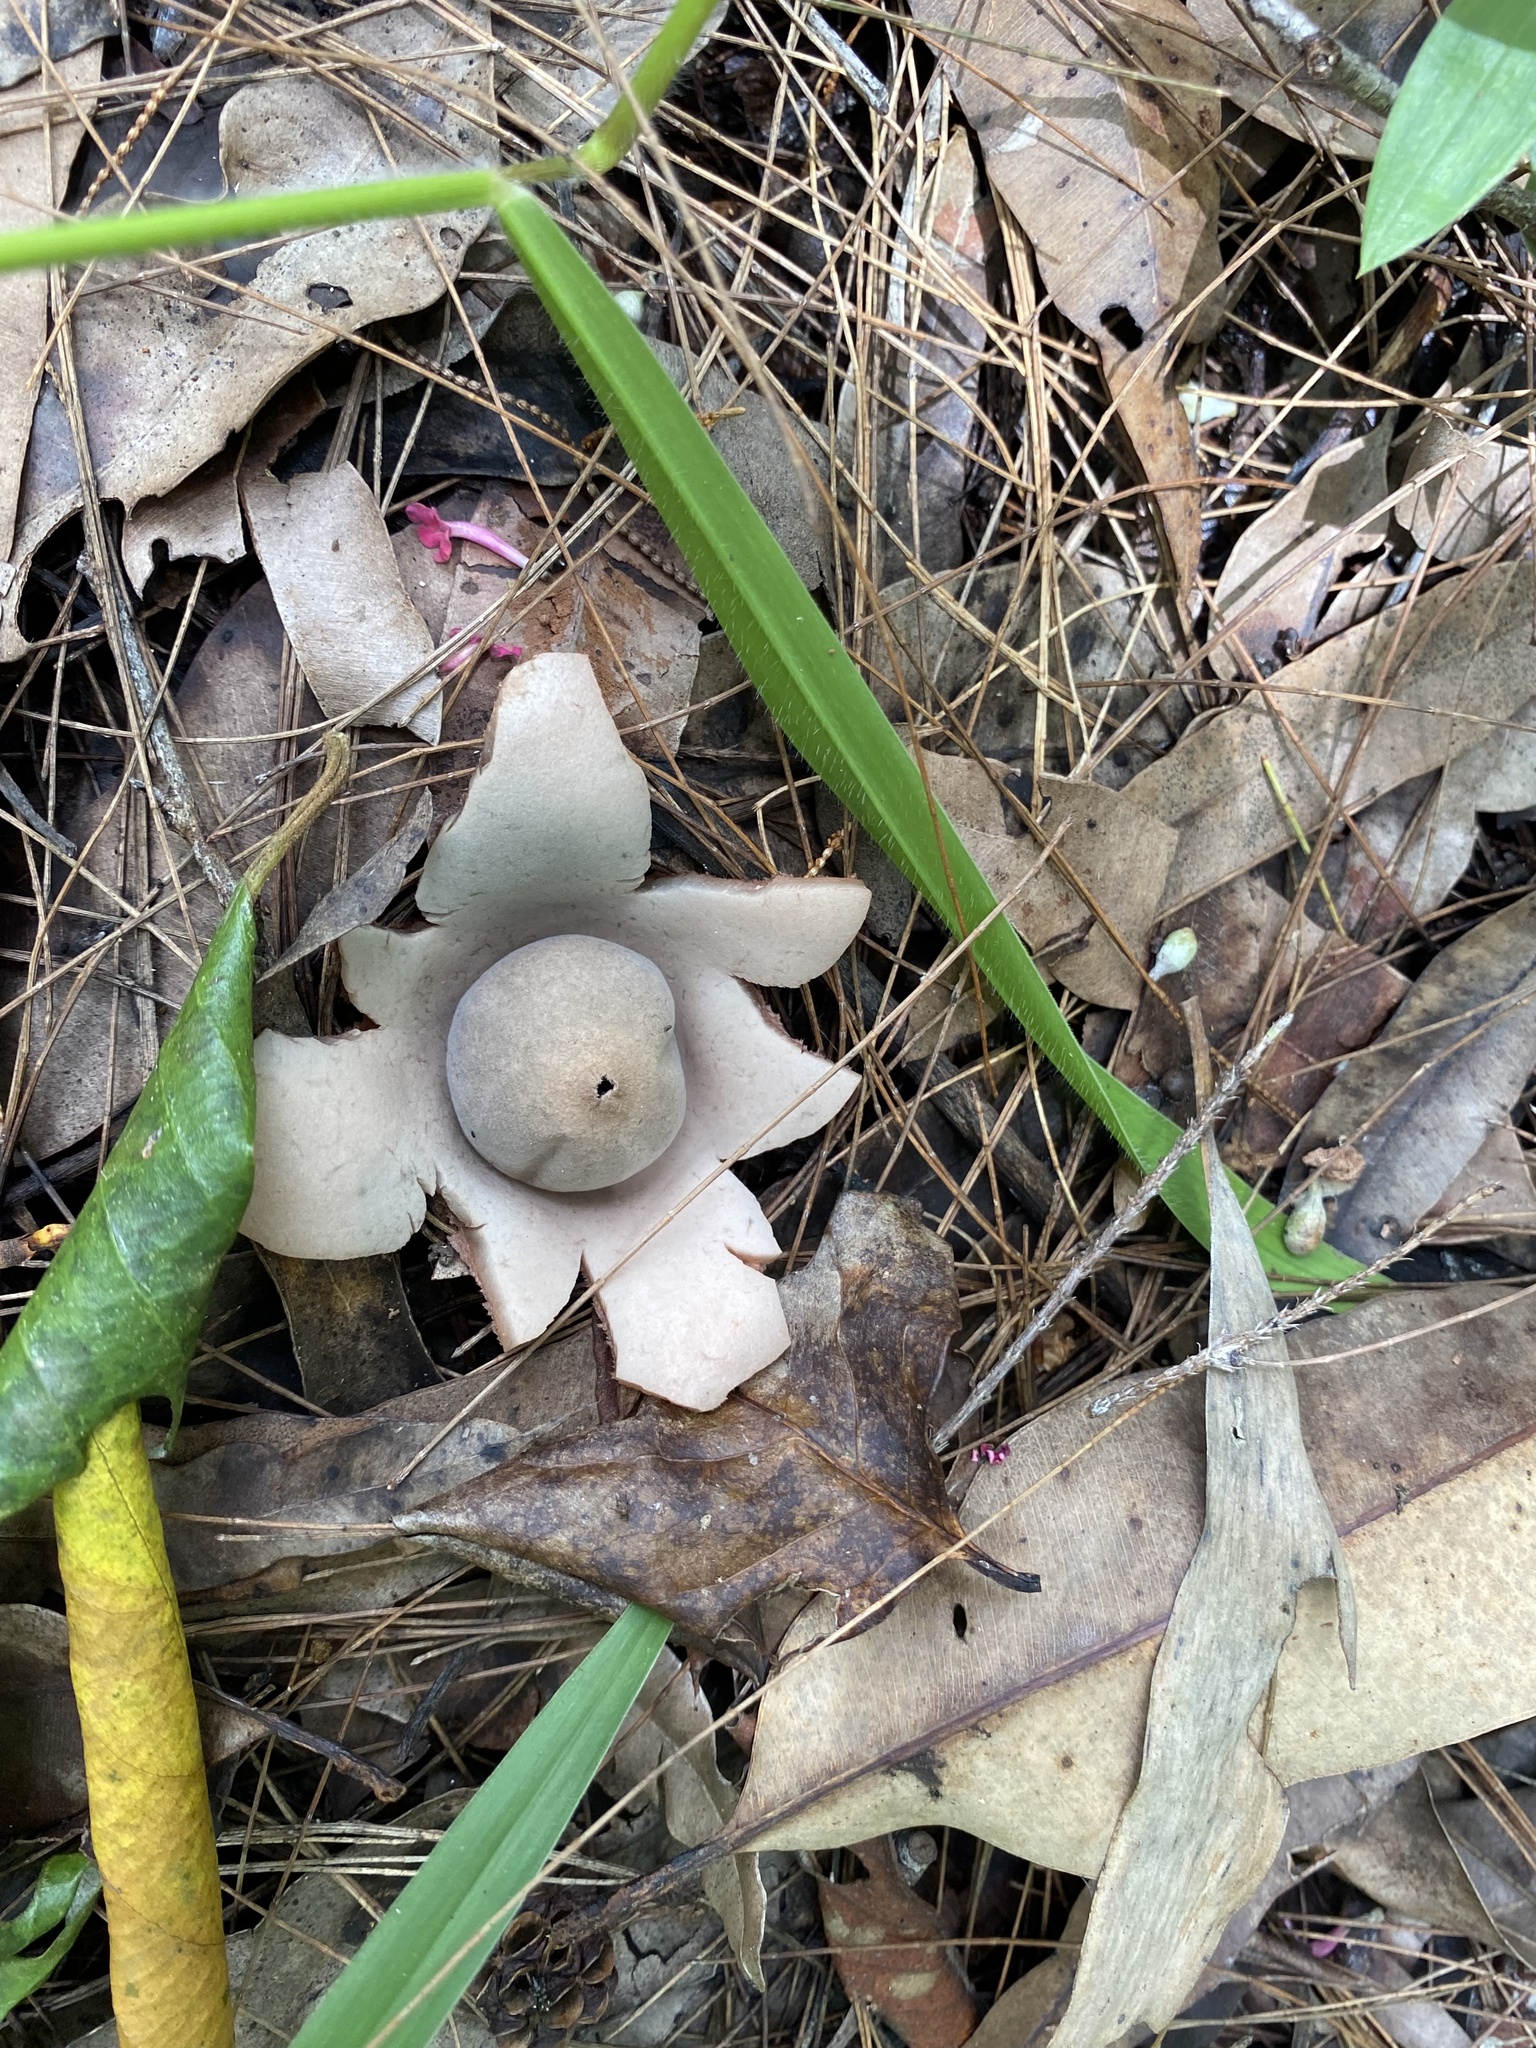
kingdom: Fungi
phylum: Basidiomycota
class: Agaricomycetes
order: Geastrales
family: Geastraceae
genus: Geastrum
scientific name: Geastrum saccatum
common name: Rounded earthstar
